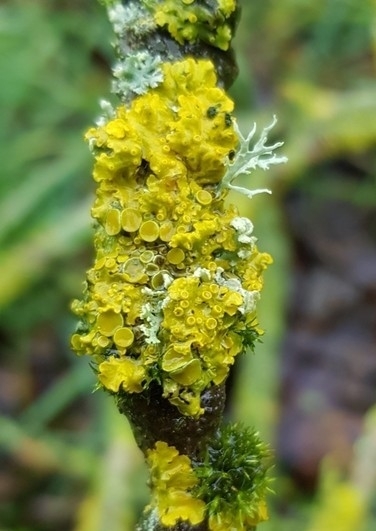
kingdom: Fungi
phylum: Ascomycota
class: Lecanoromycetes
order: Teloschistales
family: Teloschistaceae
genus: Xanthoria
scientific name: Xanthoria parietina
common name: Common orange lichen
